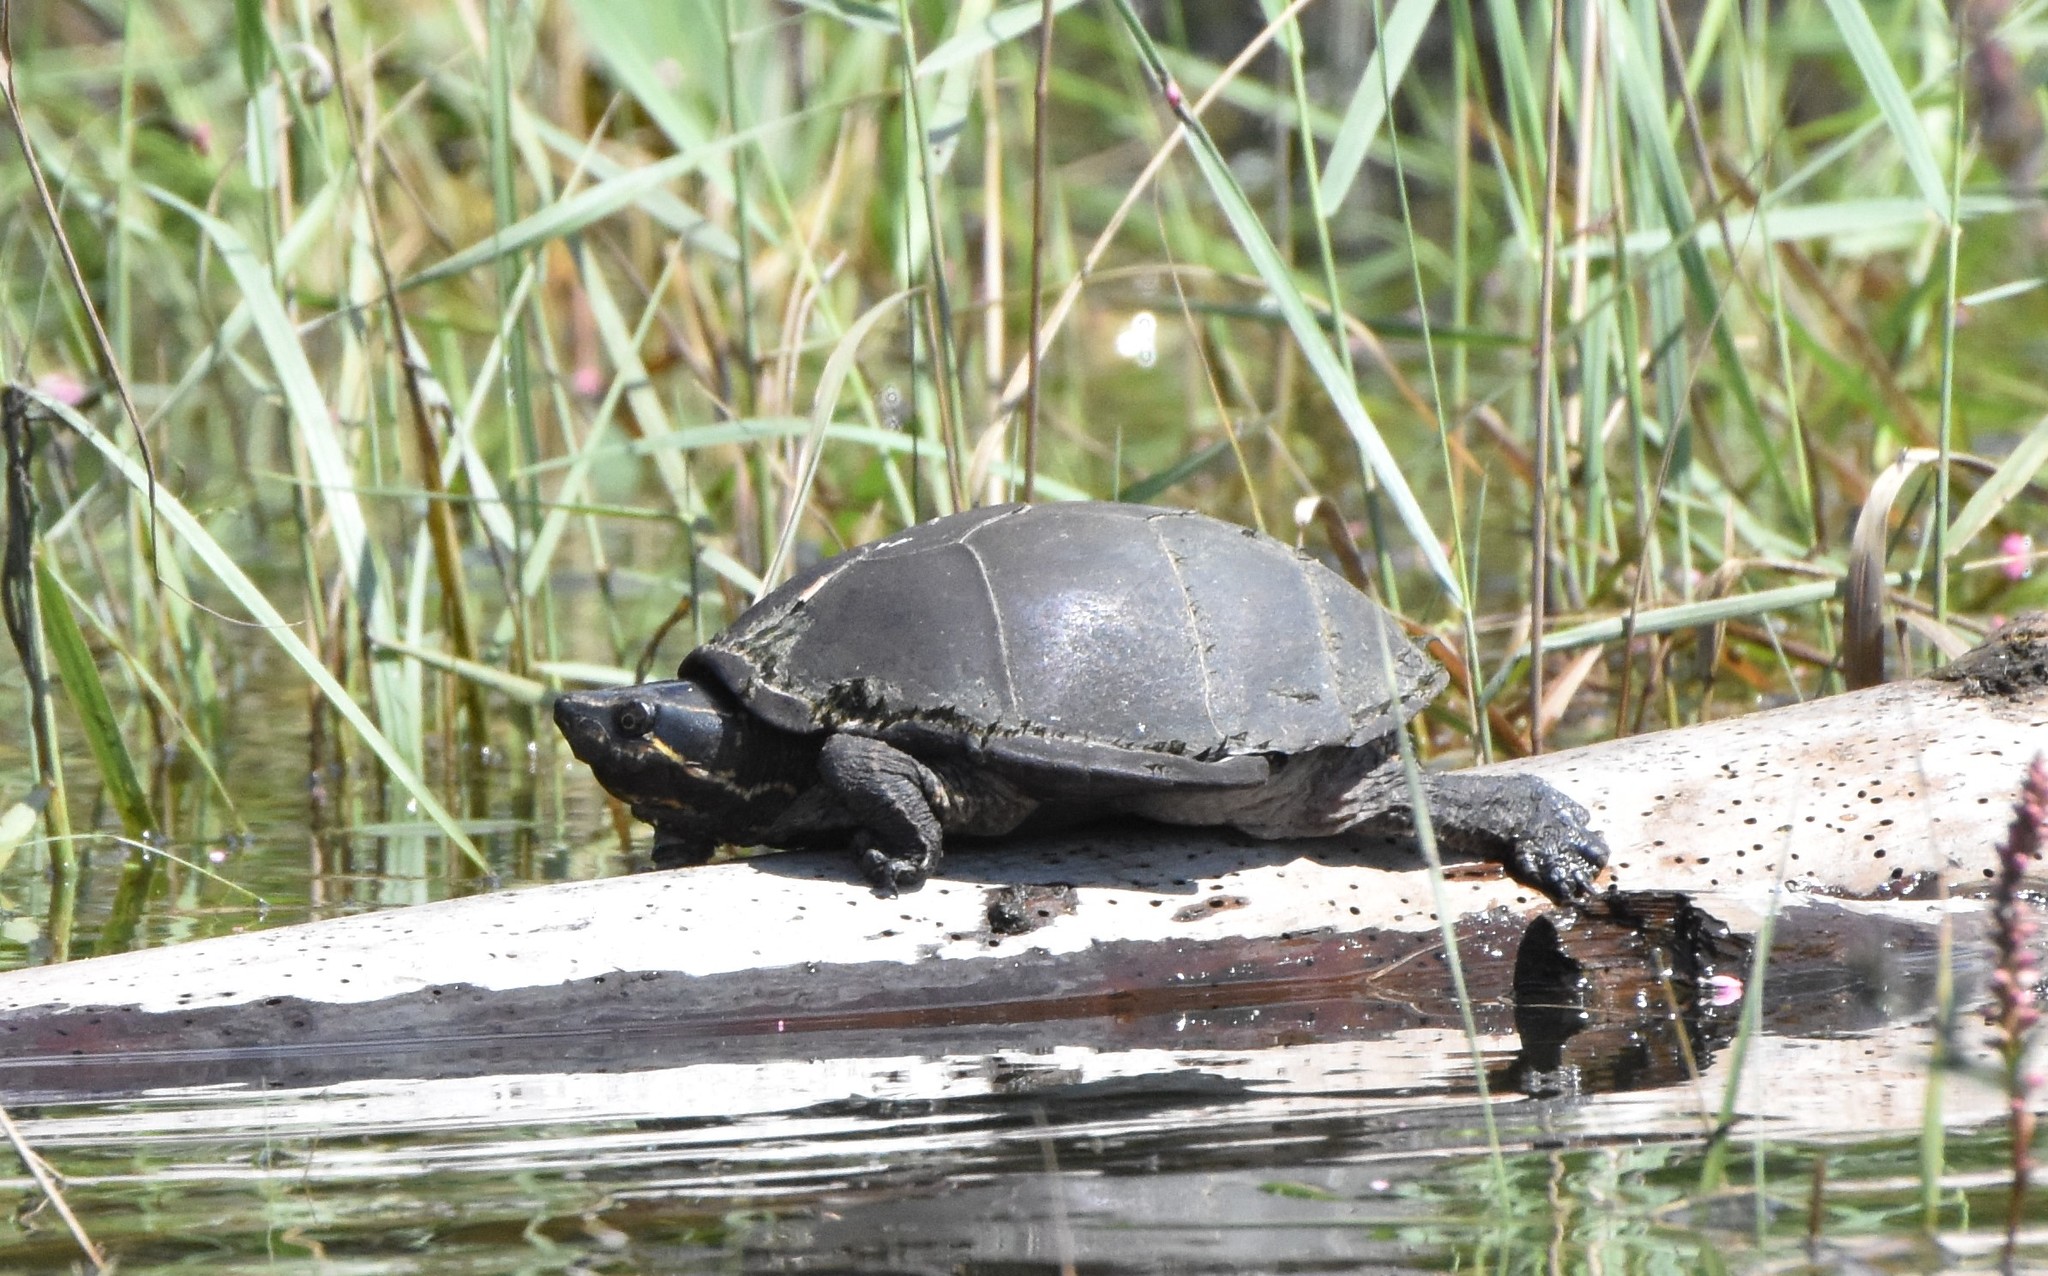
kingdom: Animalia
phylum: Chordata
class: Testudines
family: Kinosternidae
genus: Sternotherus
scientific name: Sternotherus odoratus
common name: Common musk turtle
